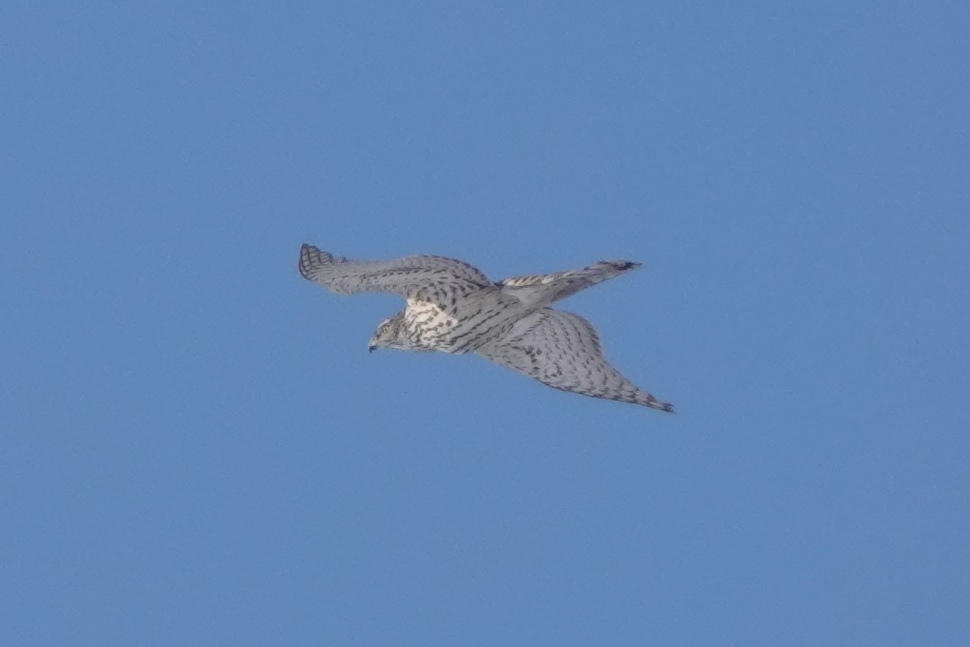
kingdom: Animalia
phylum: Chordata
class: Aves
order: Accipitriformes
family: Accipitridae
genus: Accipiter
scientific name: Accipiter gentilis
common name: Northern goshawk
